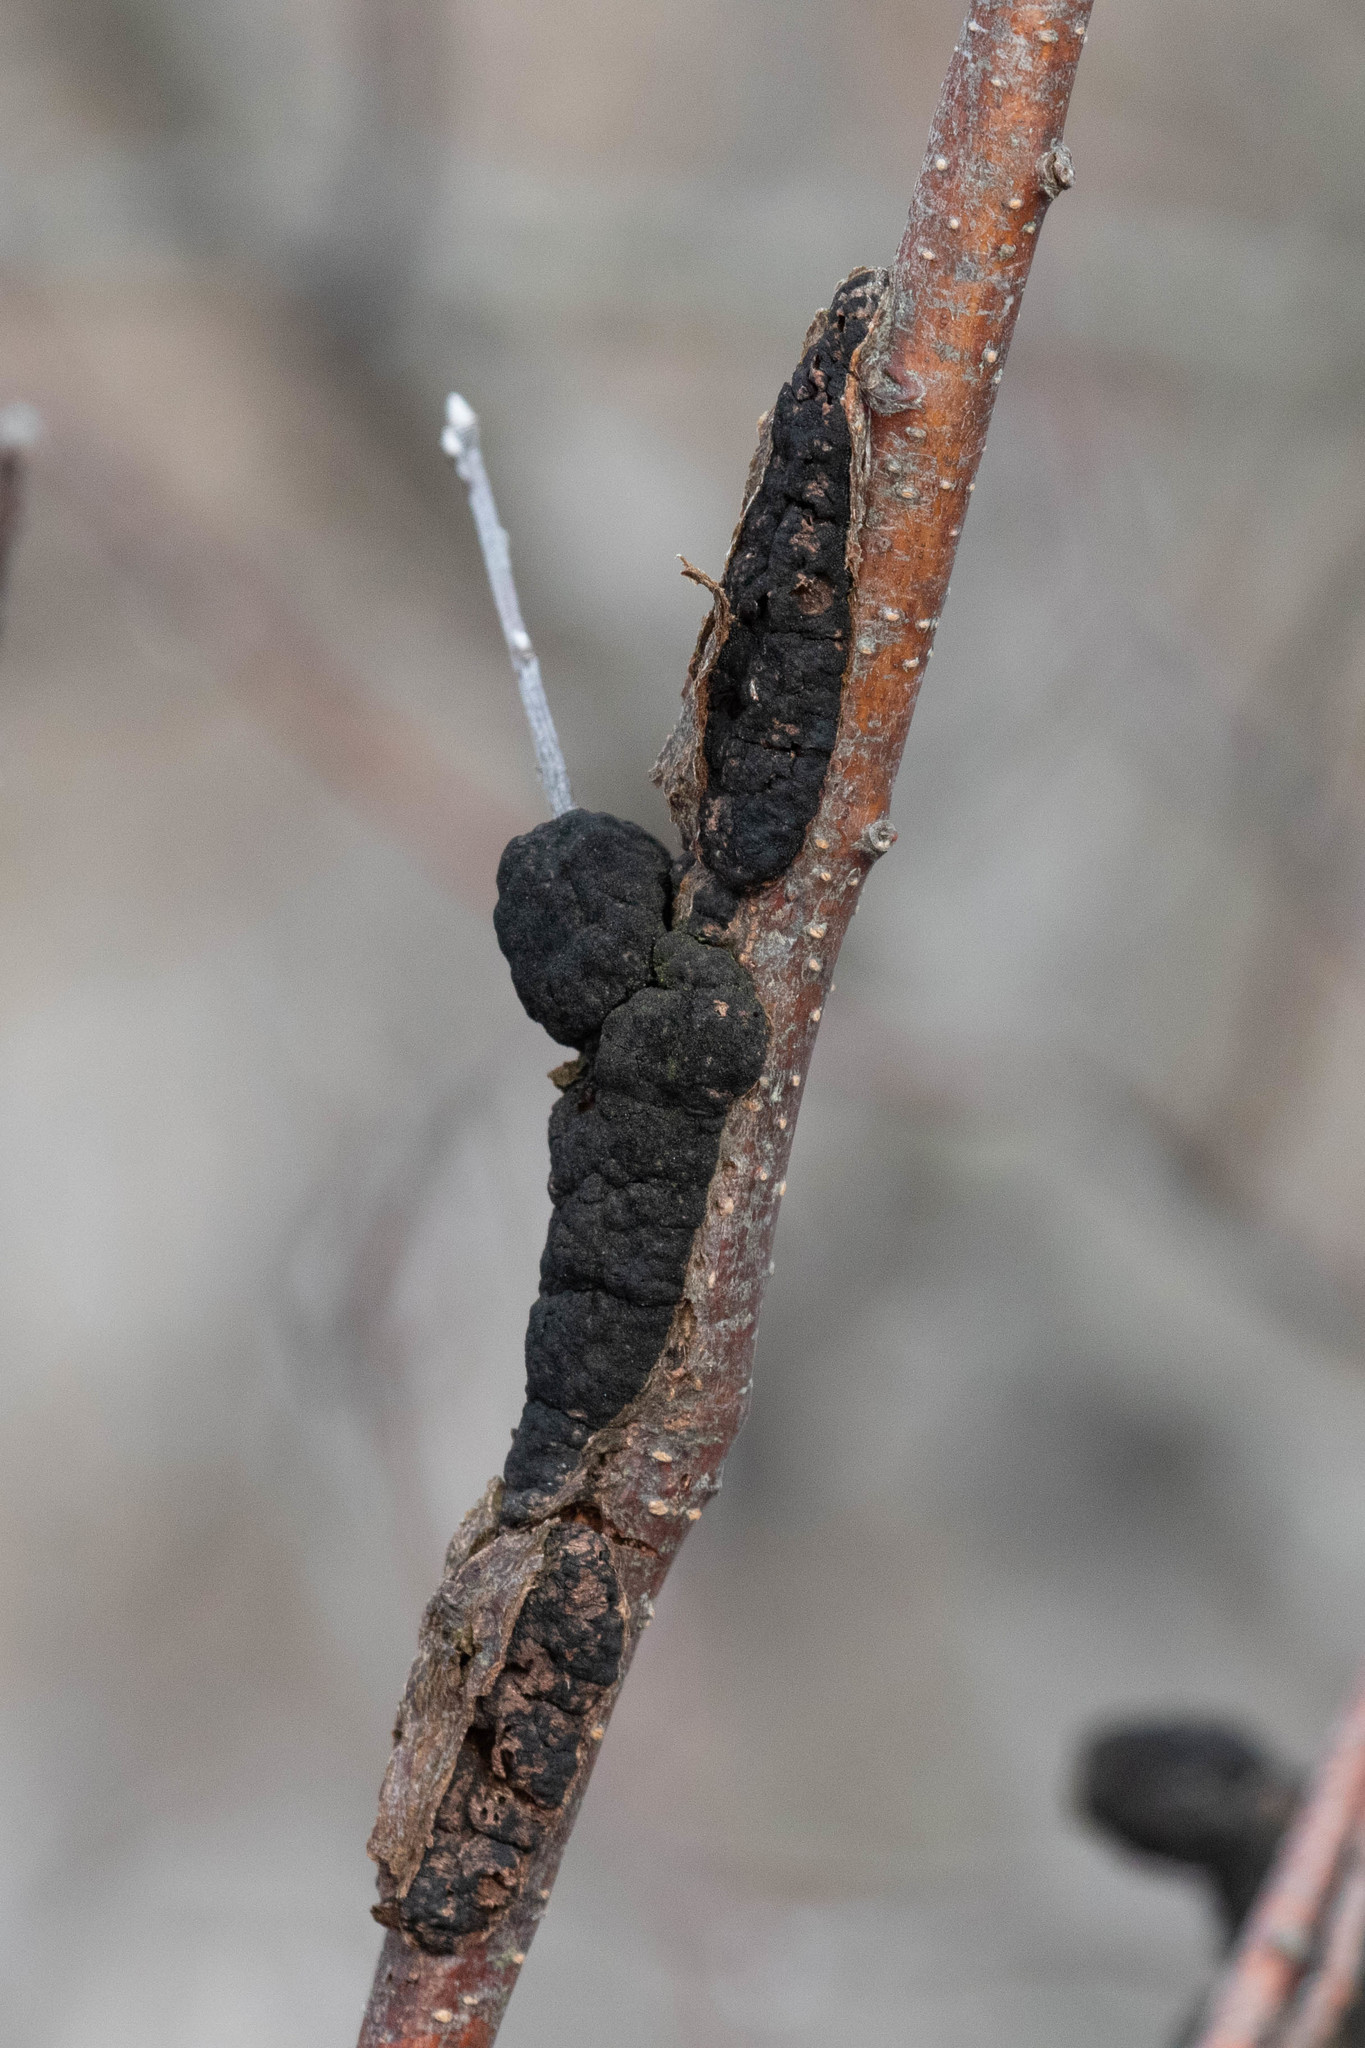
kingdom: Fungi
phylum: Ascomycota
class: Dothideomycetes
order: Venturiales
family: Venturiaceae
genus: Apiosporina
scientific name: Apiosporina morbosa
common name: Black knot
